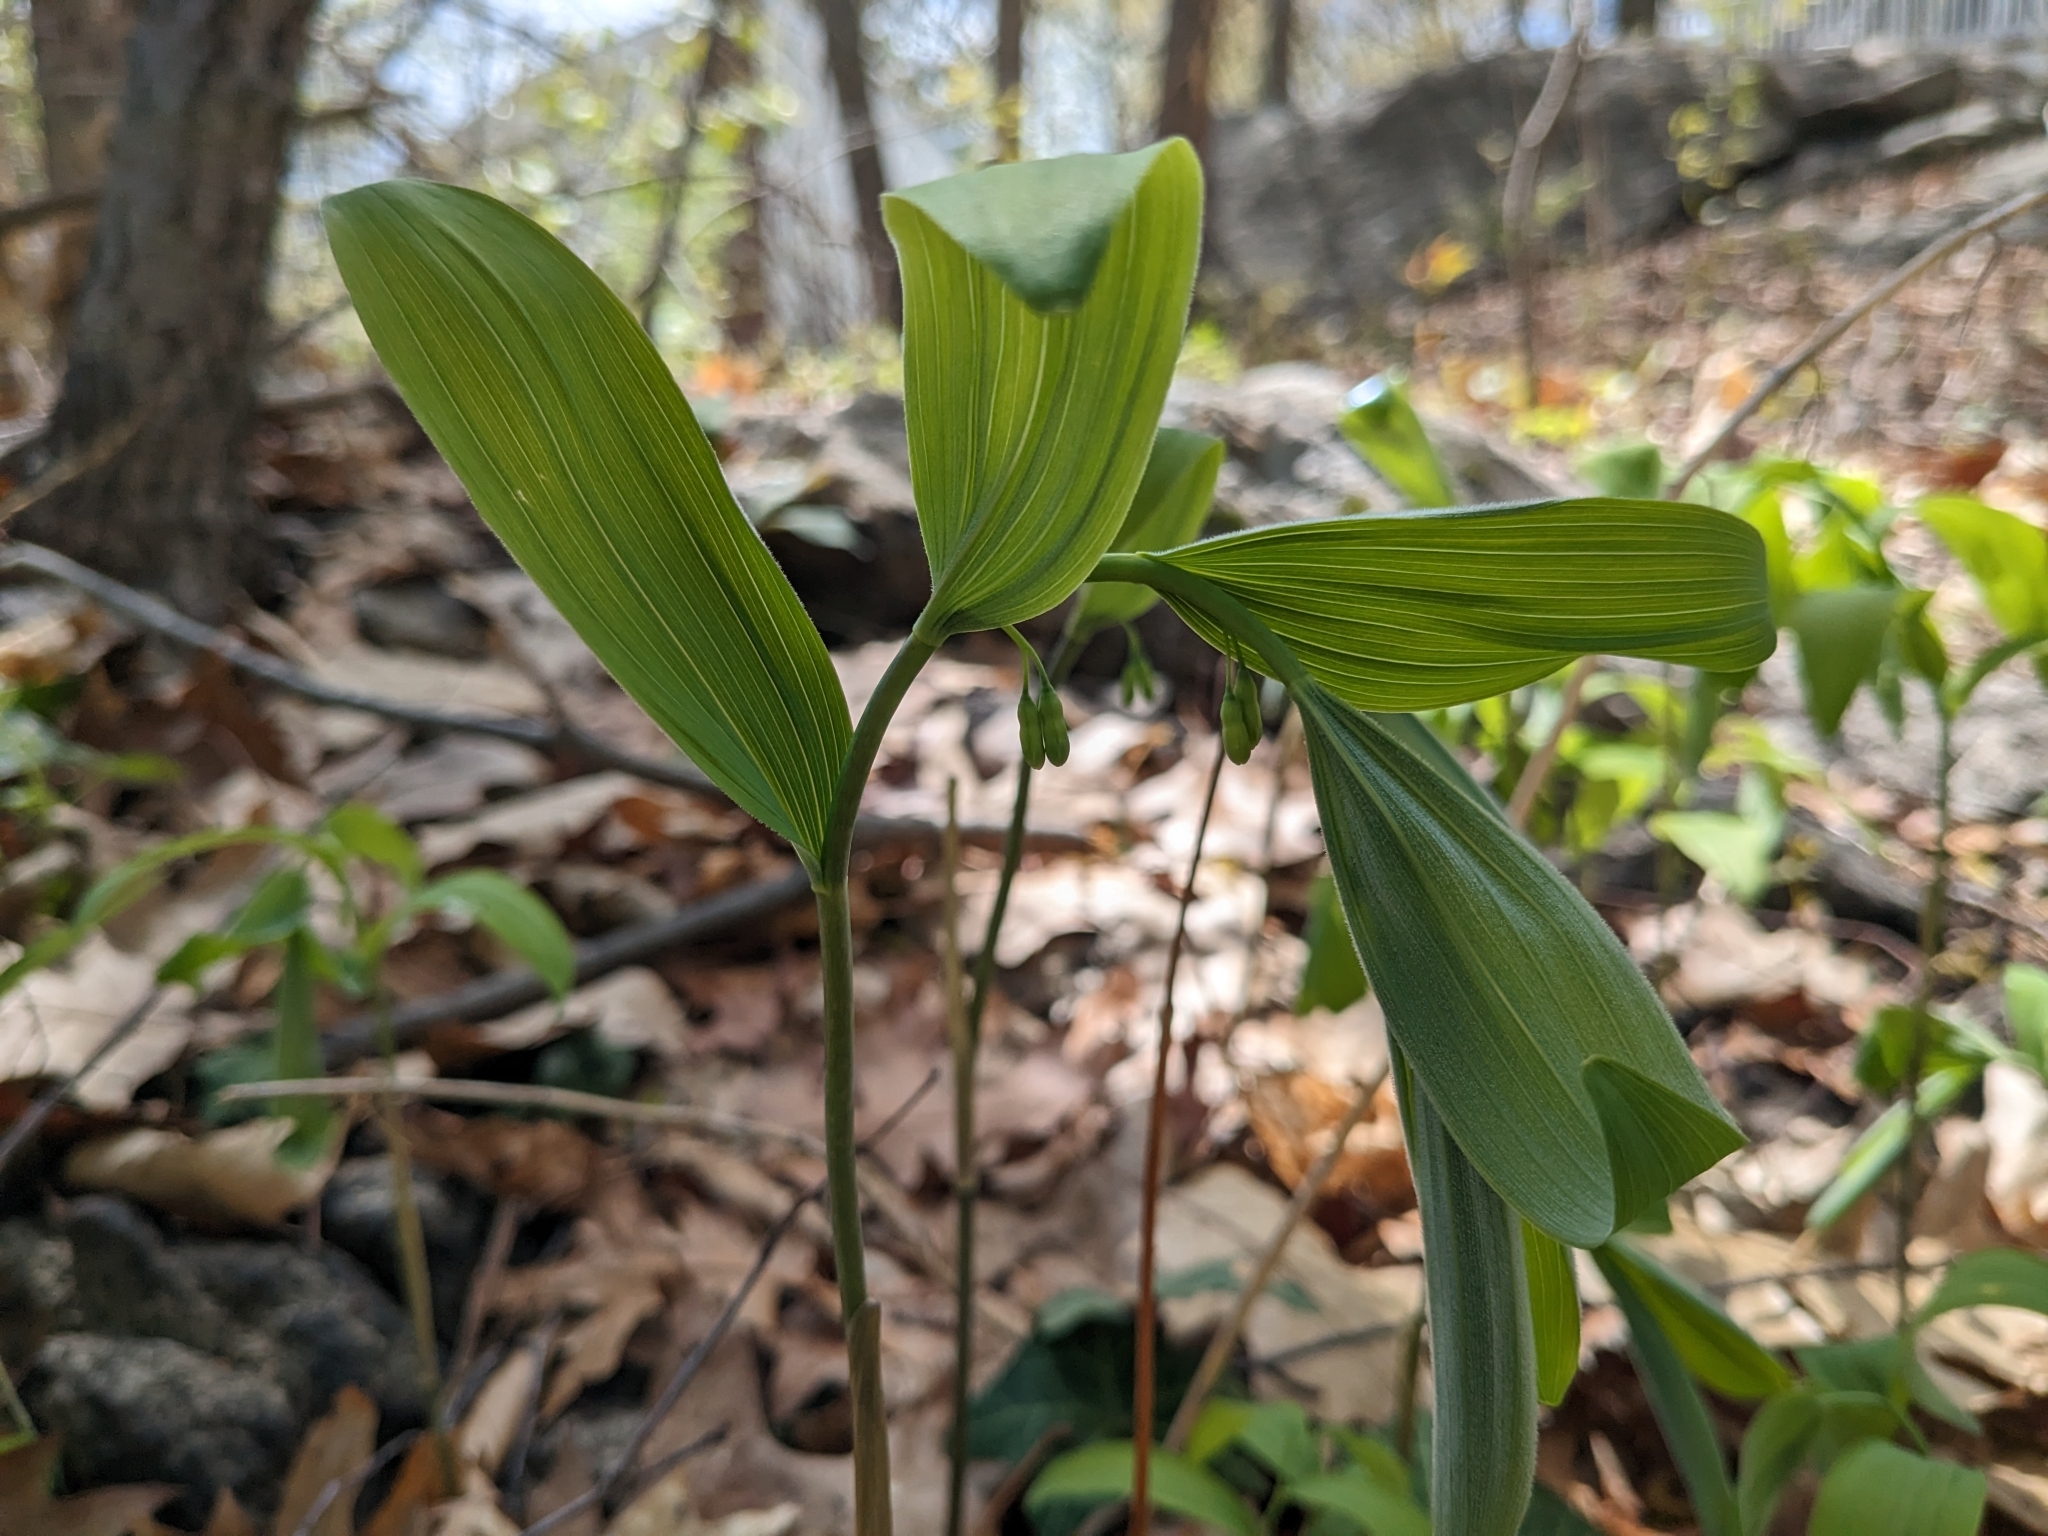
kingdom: Plantae
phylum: Tracheophyta
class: Liliopsida
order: Asparagales
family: Asparagaceae
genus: Polygonatum
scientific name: Polygonatum pubescens
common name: Downy solomon's seal
